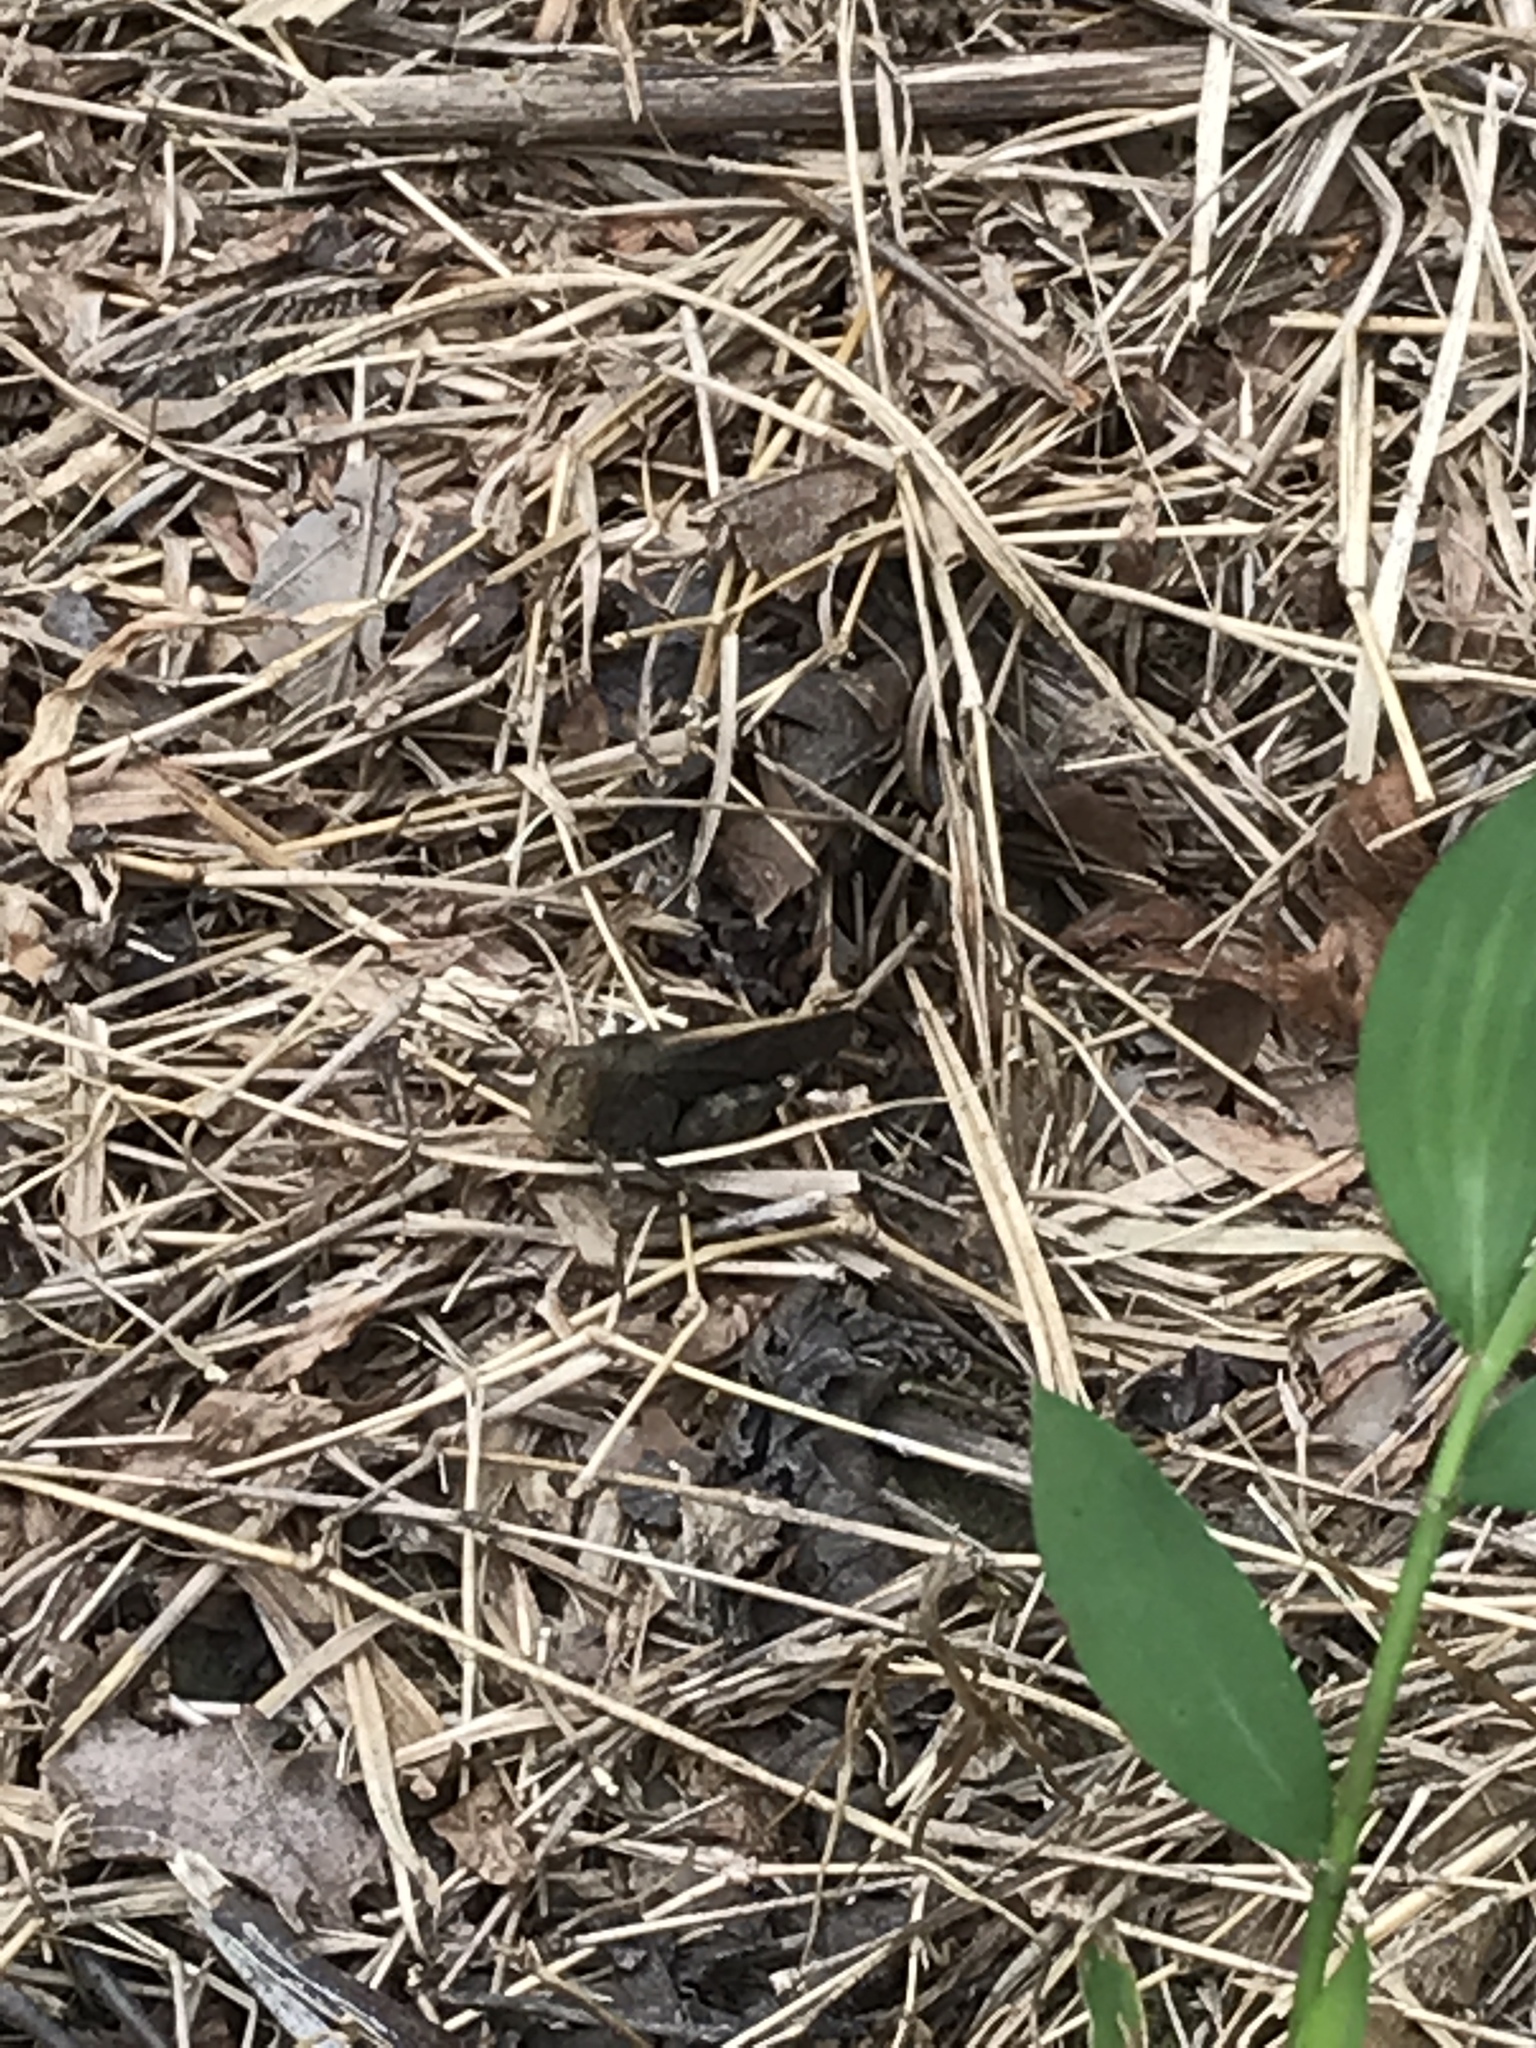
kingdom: Animalia
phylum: Arthropoda
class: Insecta
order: Orthoptera
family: Acrididae
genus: Arphia
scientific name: Arphia sulphurea
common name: Spring yellow-winged locust
